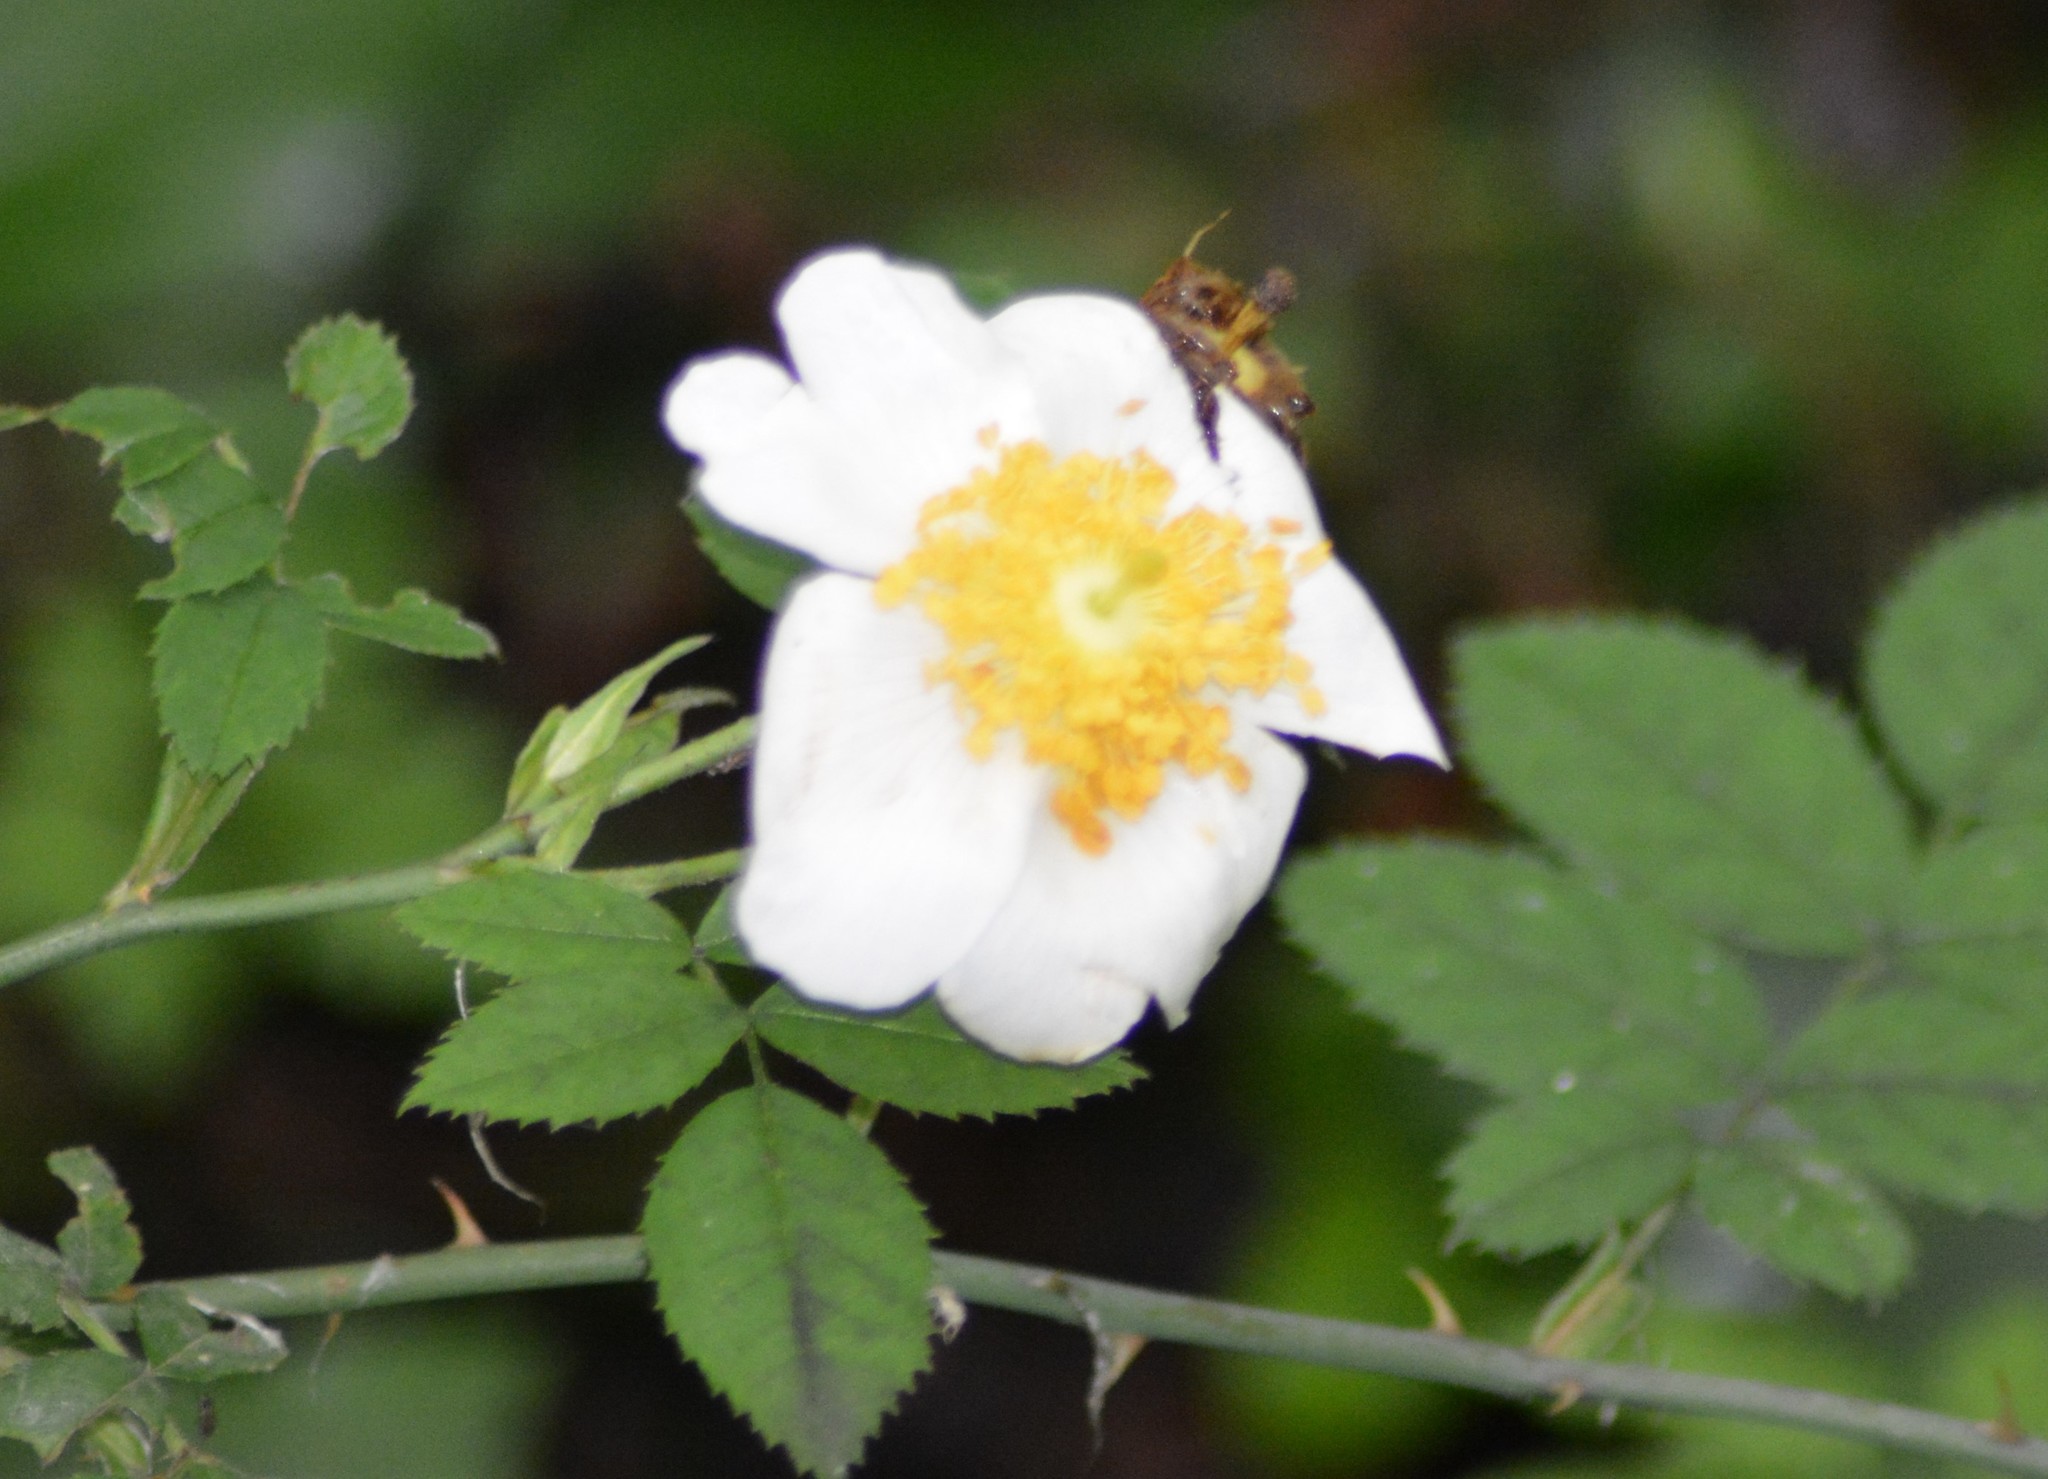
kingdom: Plantae
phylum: Tracheophyta
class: Magnoliopsida
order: Rosales
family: Rosaceae
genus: Rosa
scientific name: Rosa canina
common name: Dog rose
